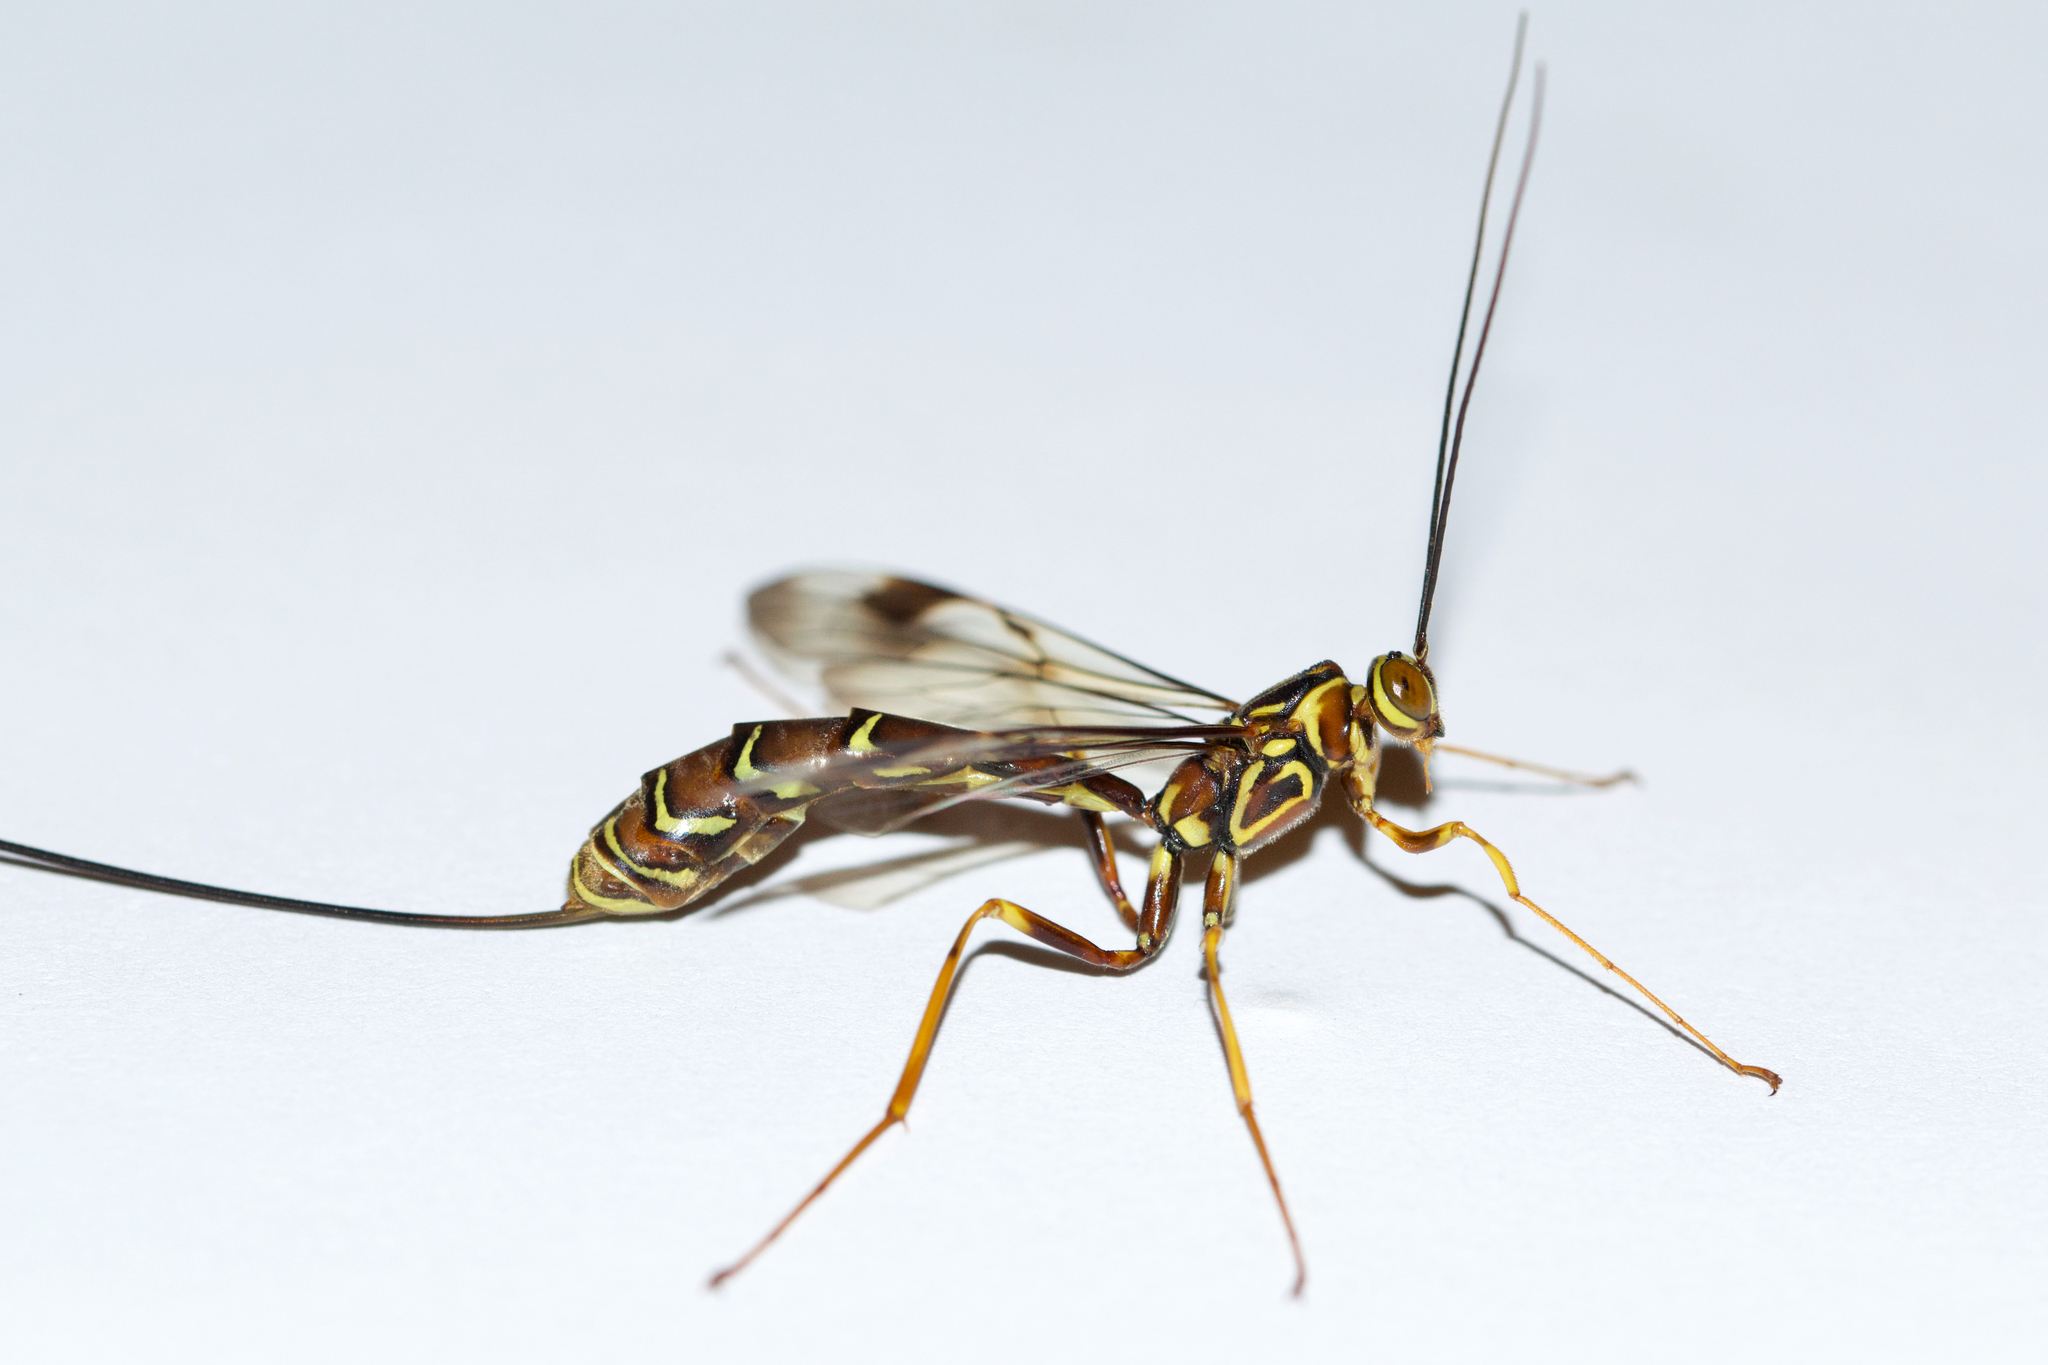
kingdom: Animalia
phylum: Arthropoda
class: Insecta
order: Hymenoptera
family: Ichneumonidae
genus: Megarhyssa
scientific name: Megarhyssa macrura
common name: Long-tailed giant ichneumonid wasp
